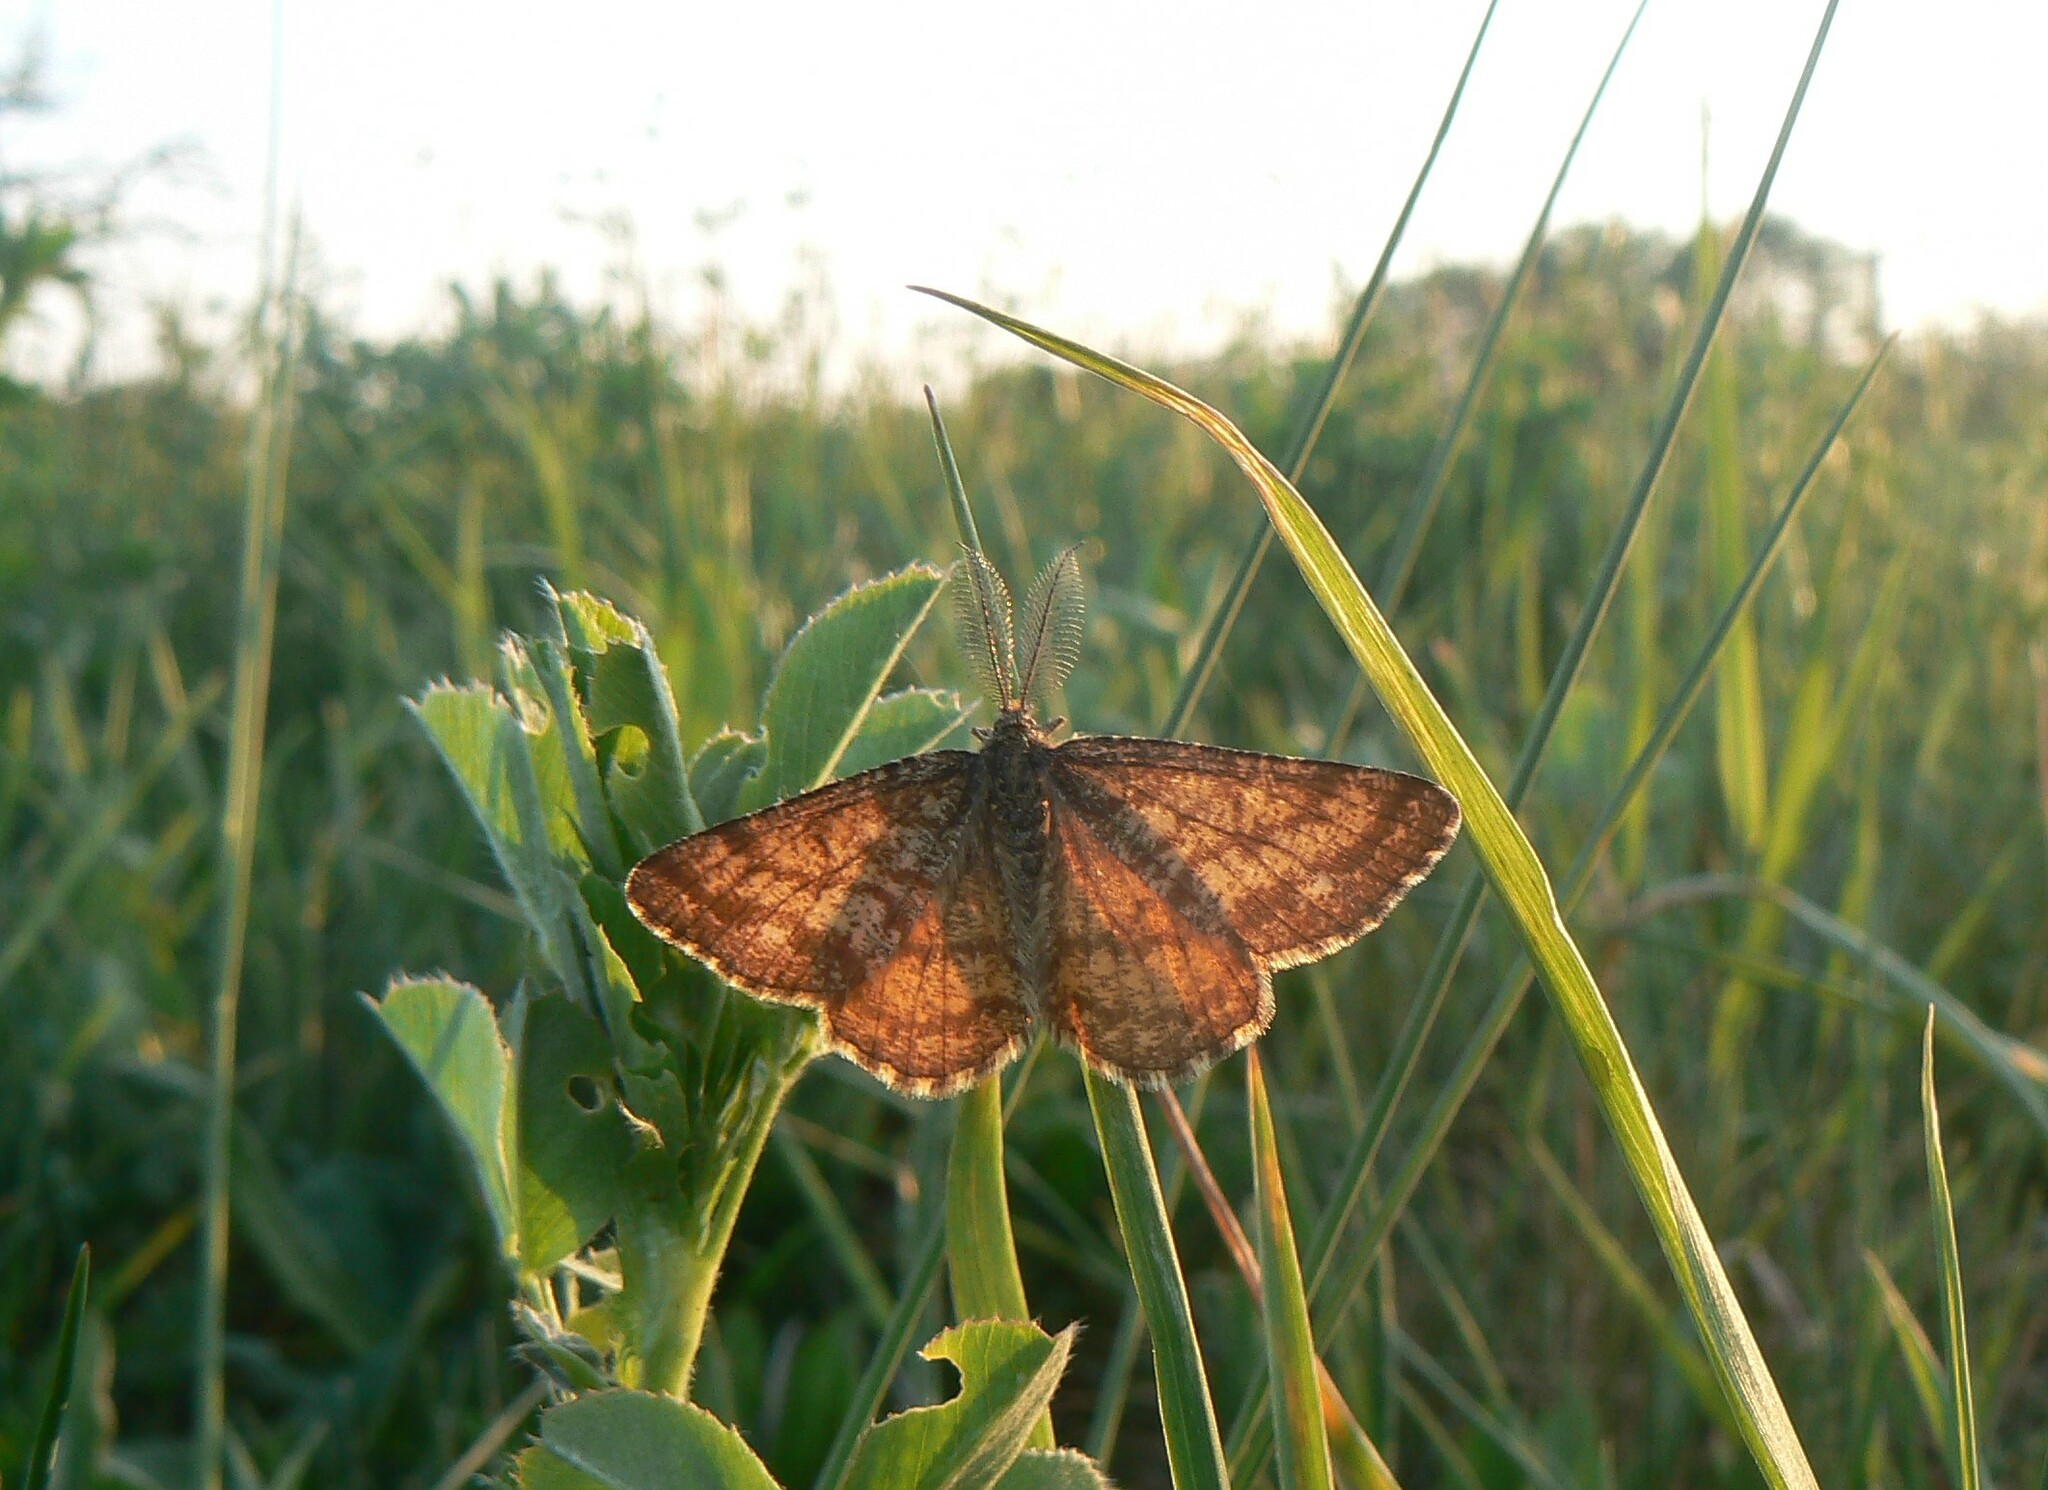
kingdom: Animalia
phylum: Arthropoda
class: Insecta
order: Lepidoptera
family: Geometridae
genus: Ematurga
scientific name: Ematurga atomaria
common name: Common heath
